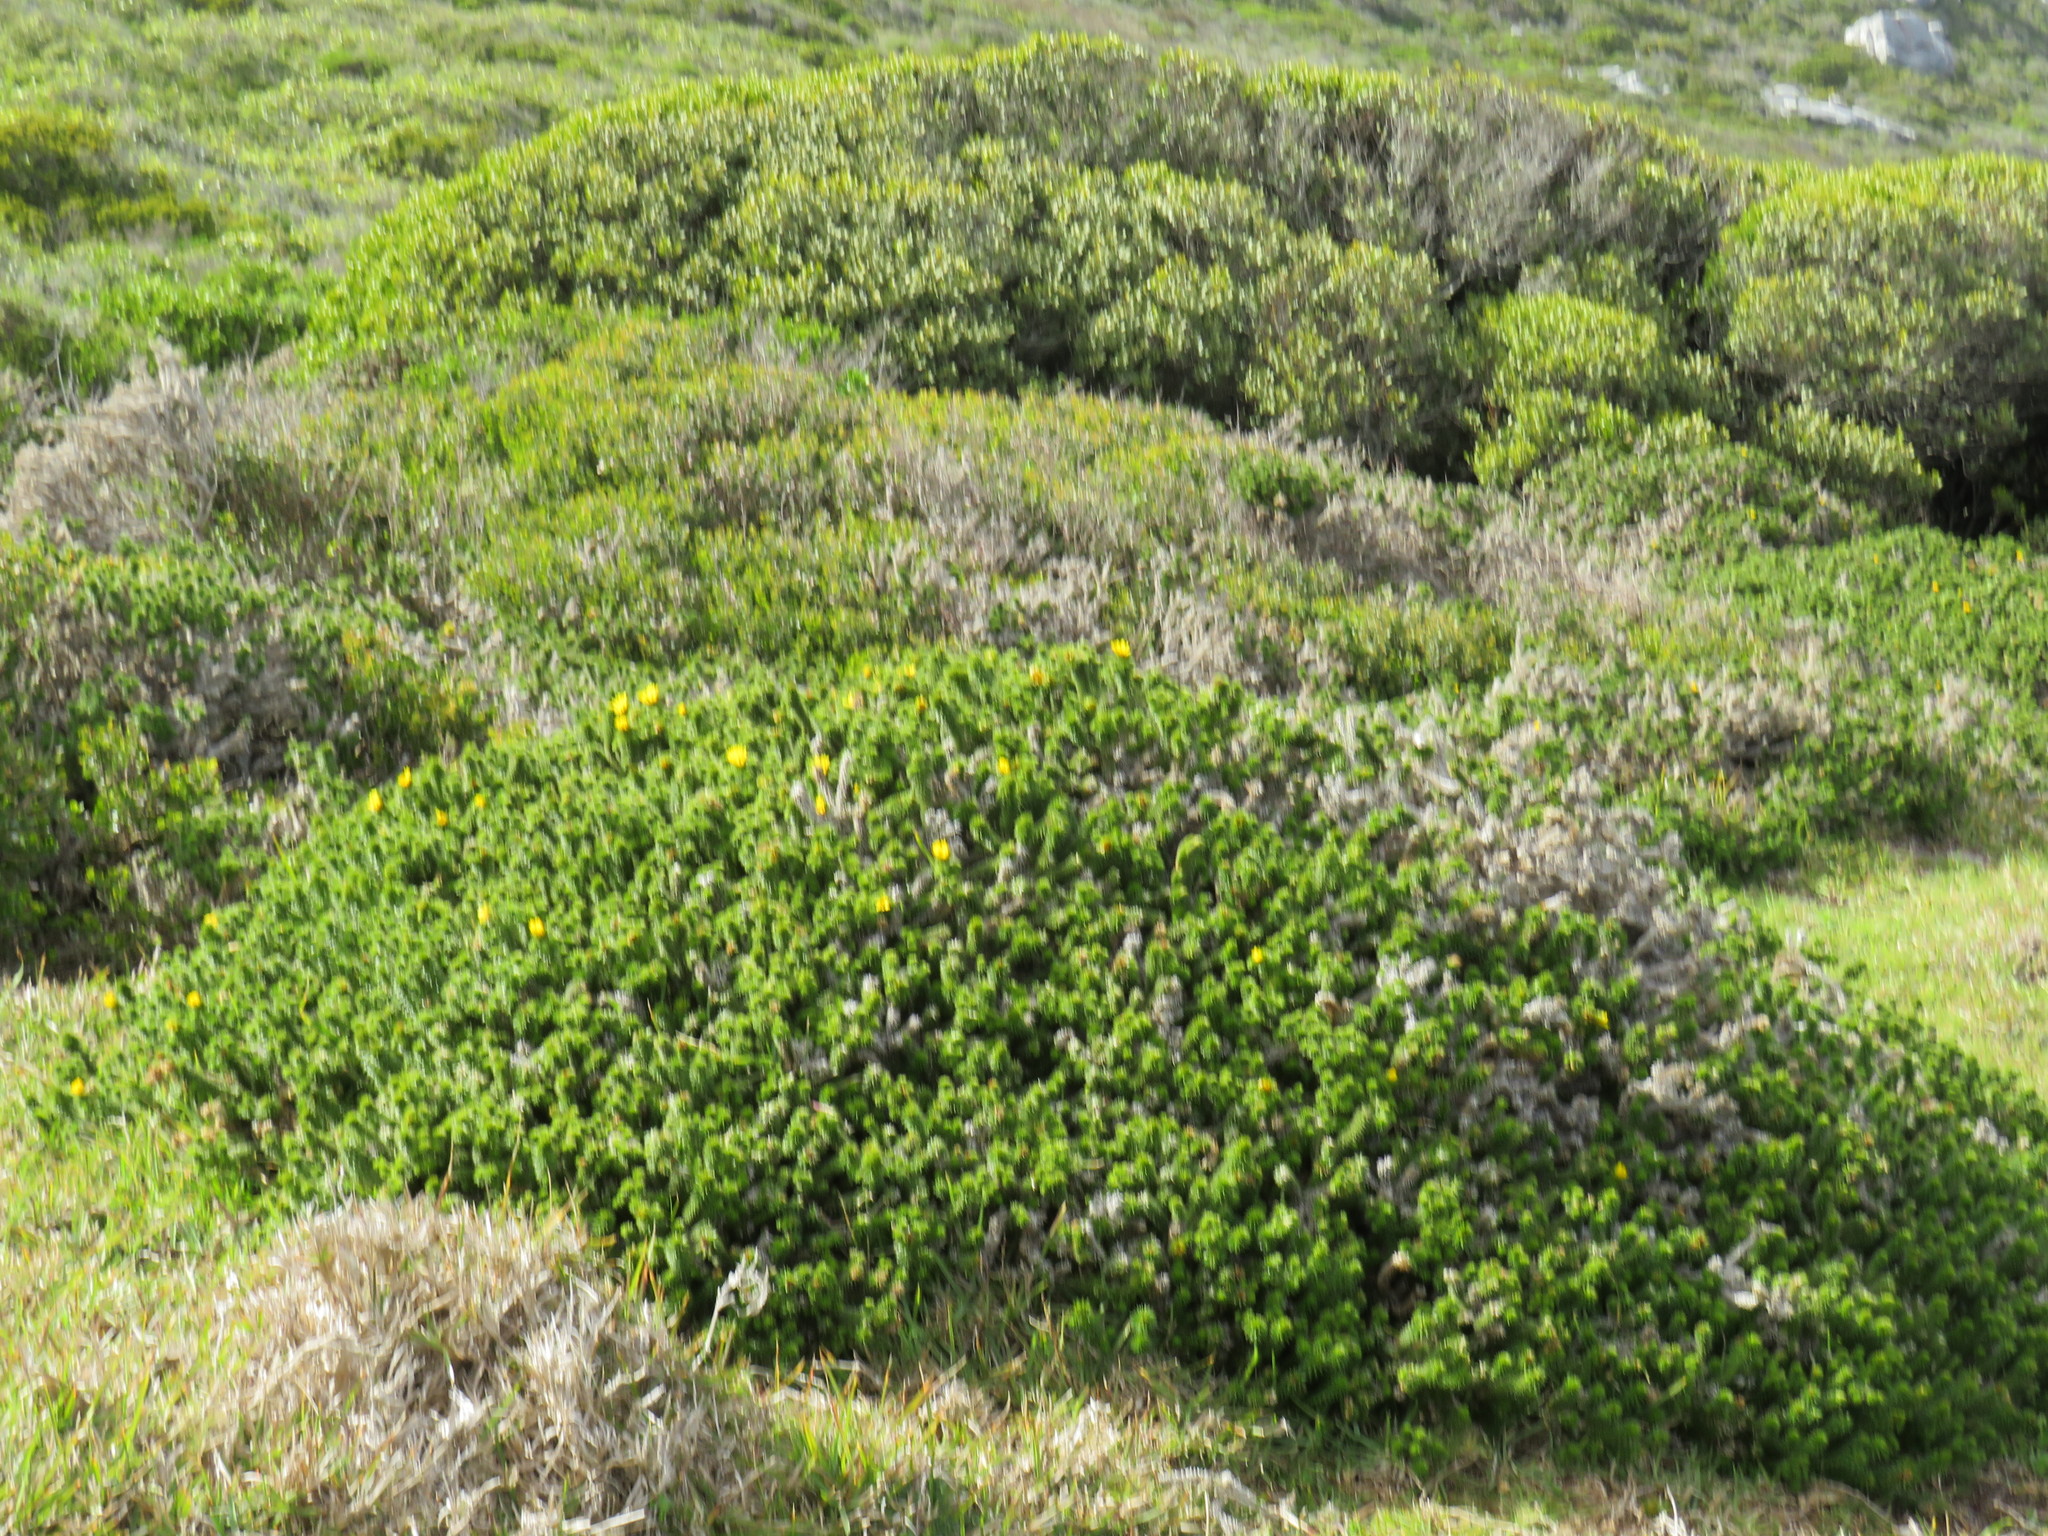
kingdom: Plantae
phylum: Tracheophyta
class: Magnoliopsida
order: Asterales
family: Asteraceae
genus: Cullumia
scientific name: Cullumia squarrosa
